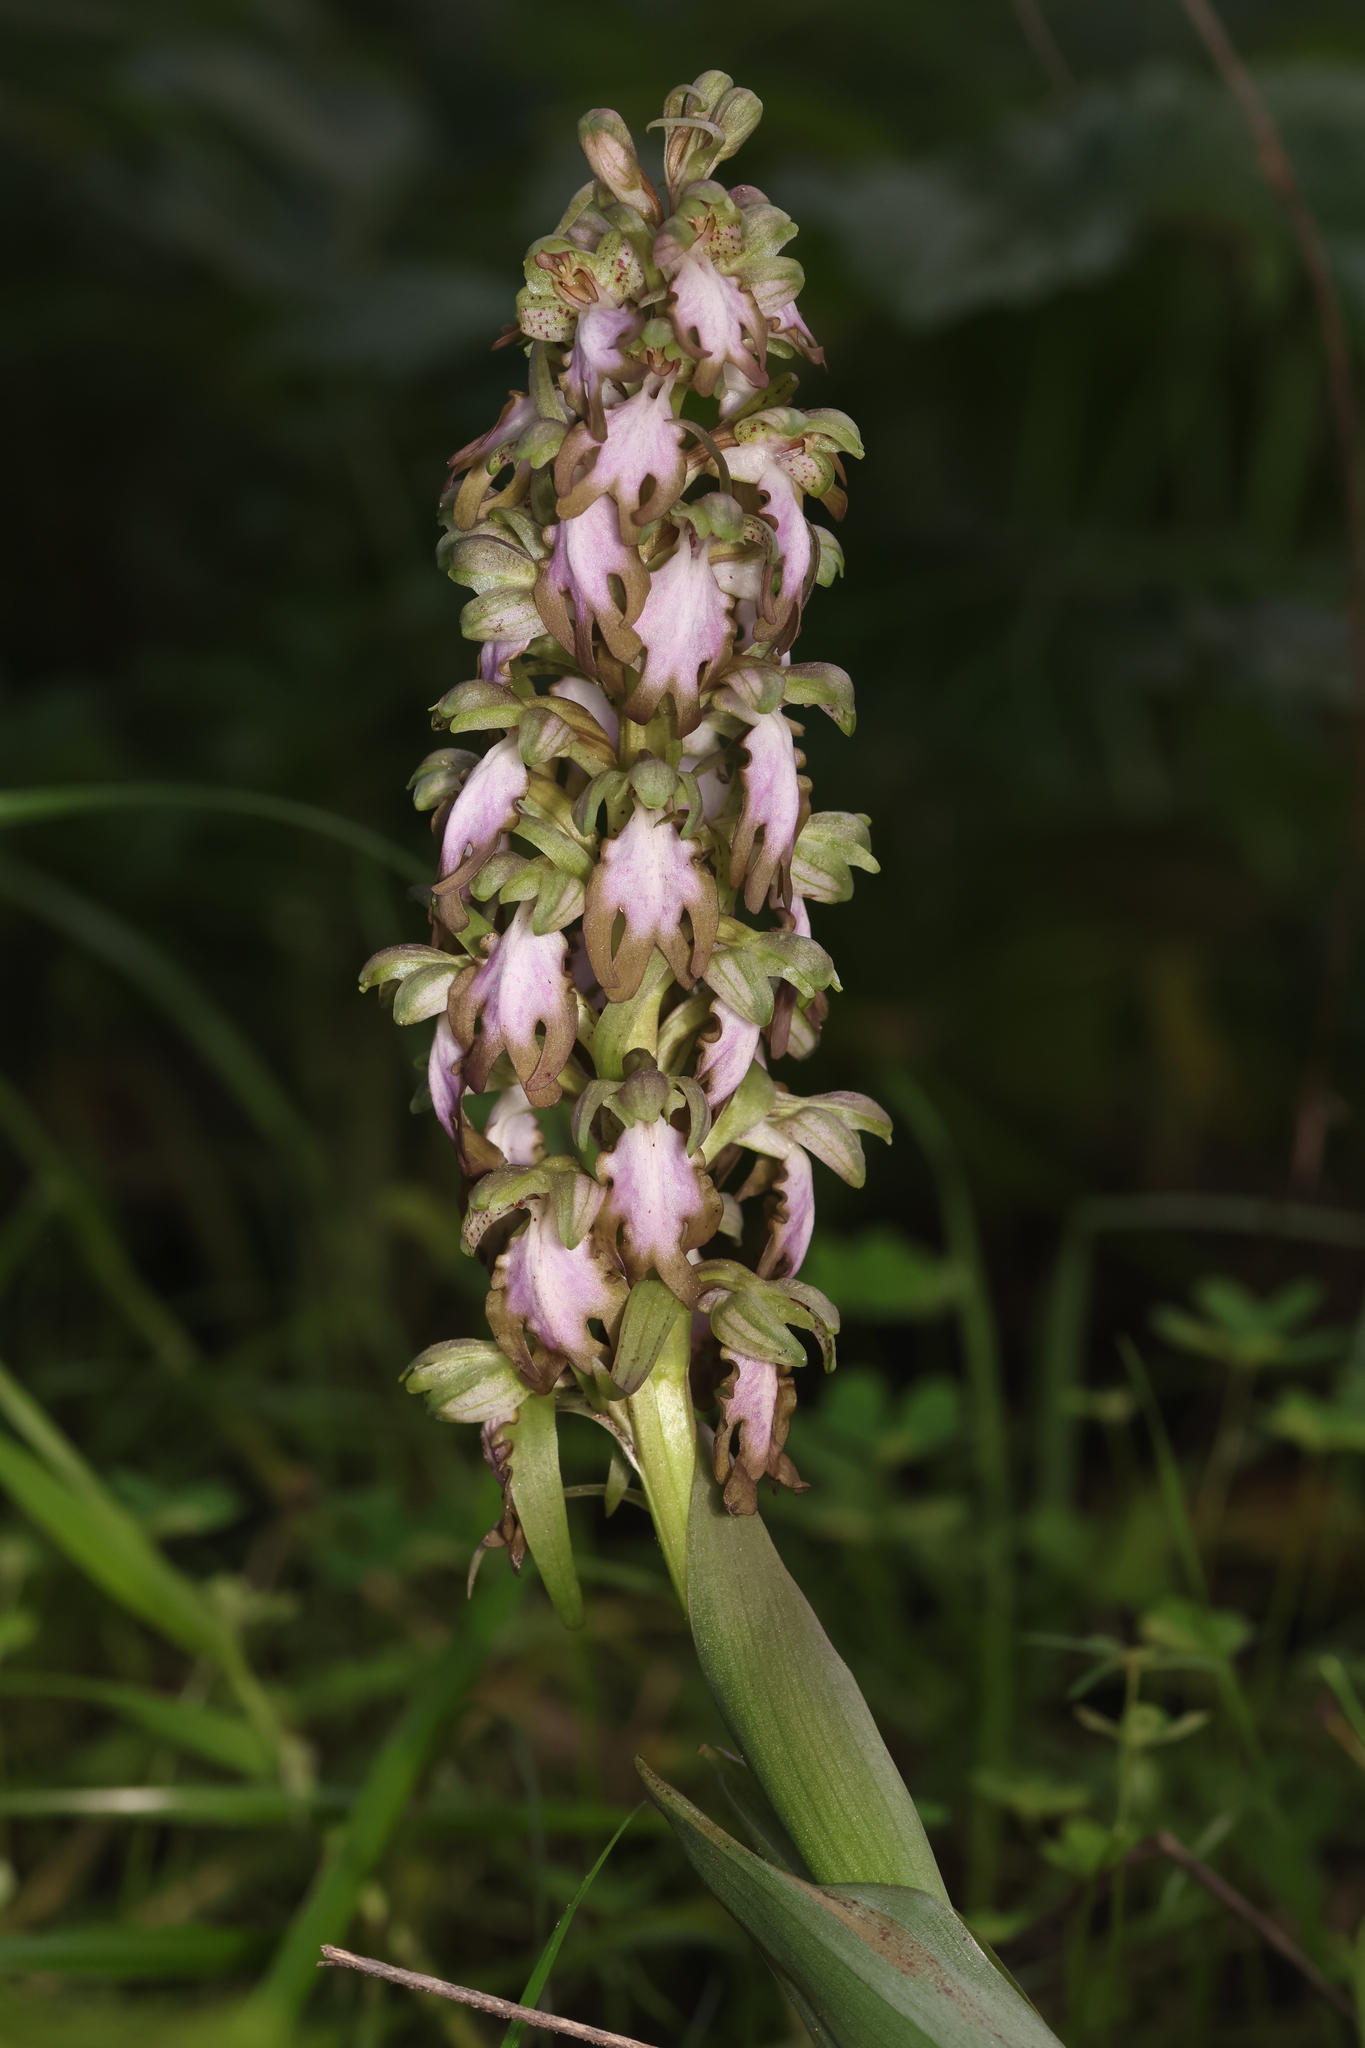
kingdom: Plantae
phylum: Tracheophyta
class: Liliopsida
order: Asparagales
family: Orchidaceae
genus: Himantoglossum
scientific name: Himantoglossum robertianum
